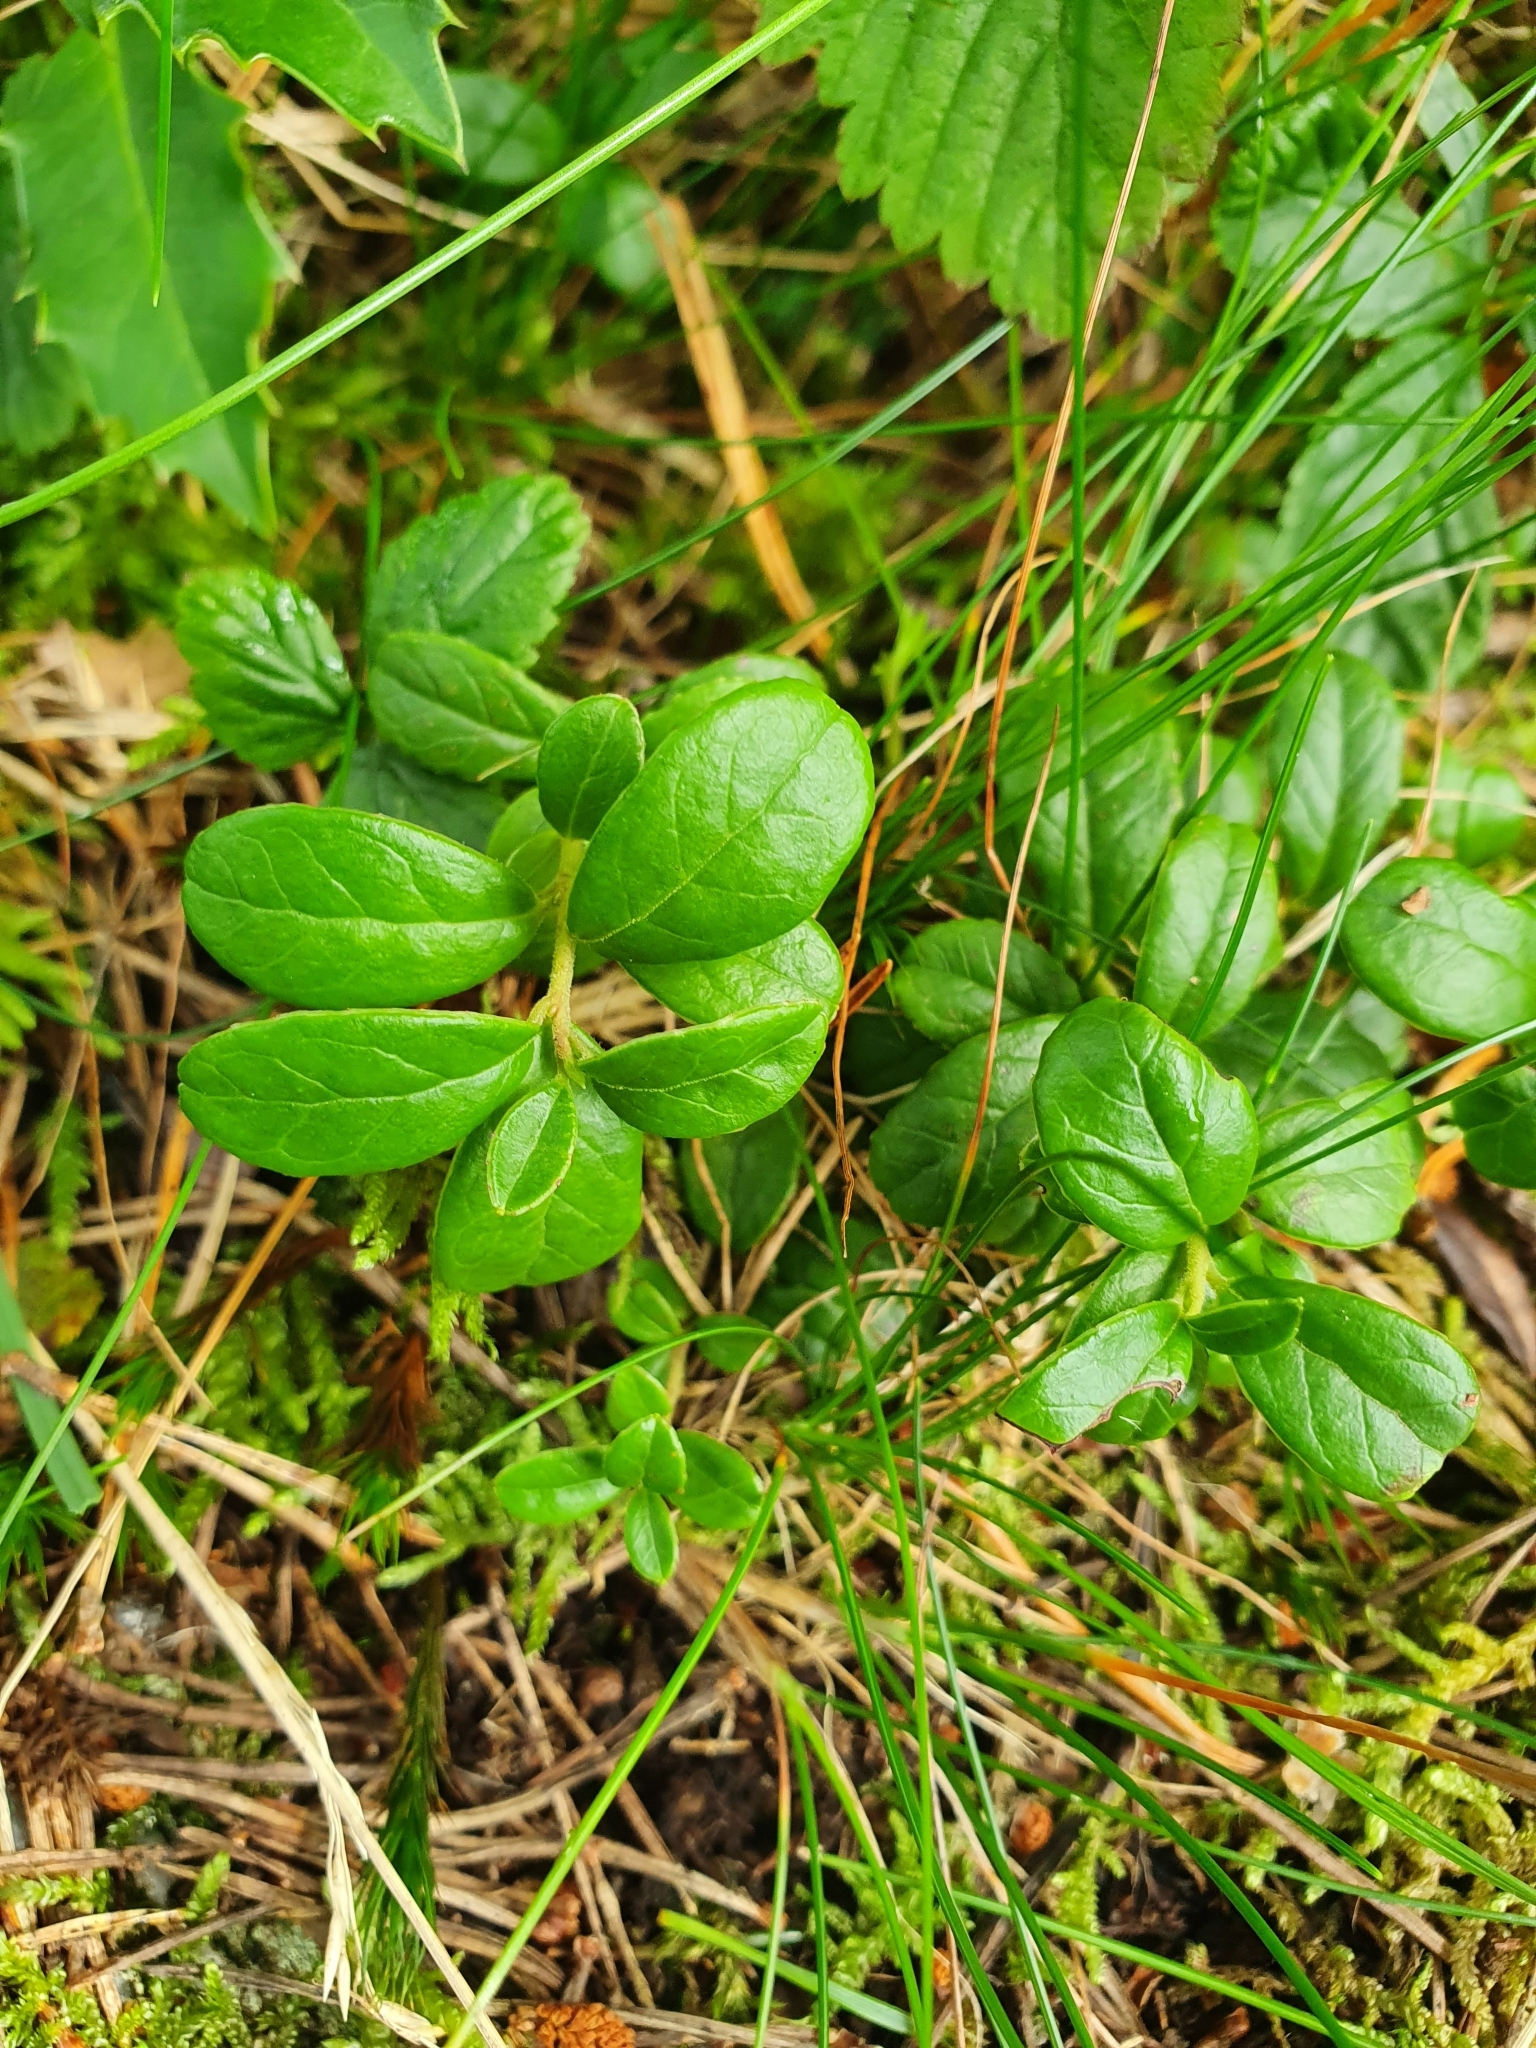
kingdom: Plantae
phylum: Tracheophyta
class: Magnoliopsida
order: Ericales
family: Ericaceae
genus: Vaccinium
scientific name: Vaccinium vitis-idaea
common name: Cowberry
